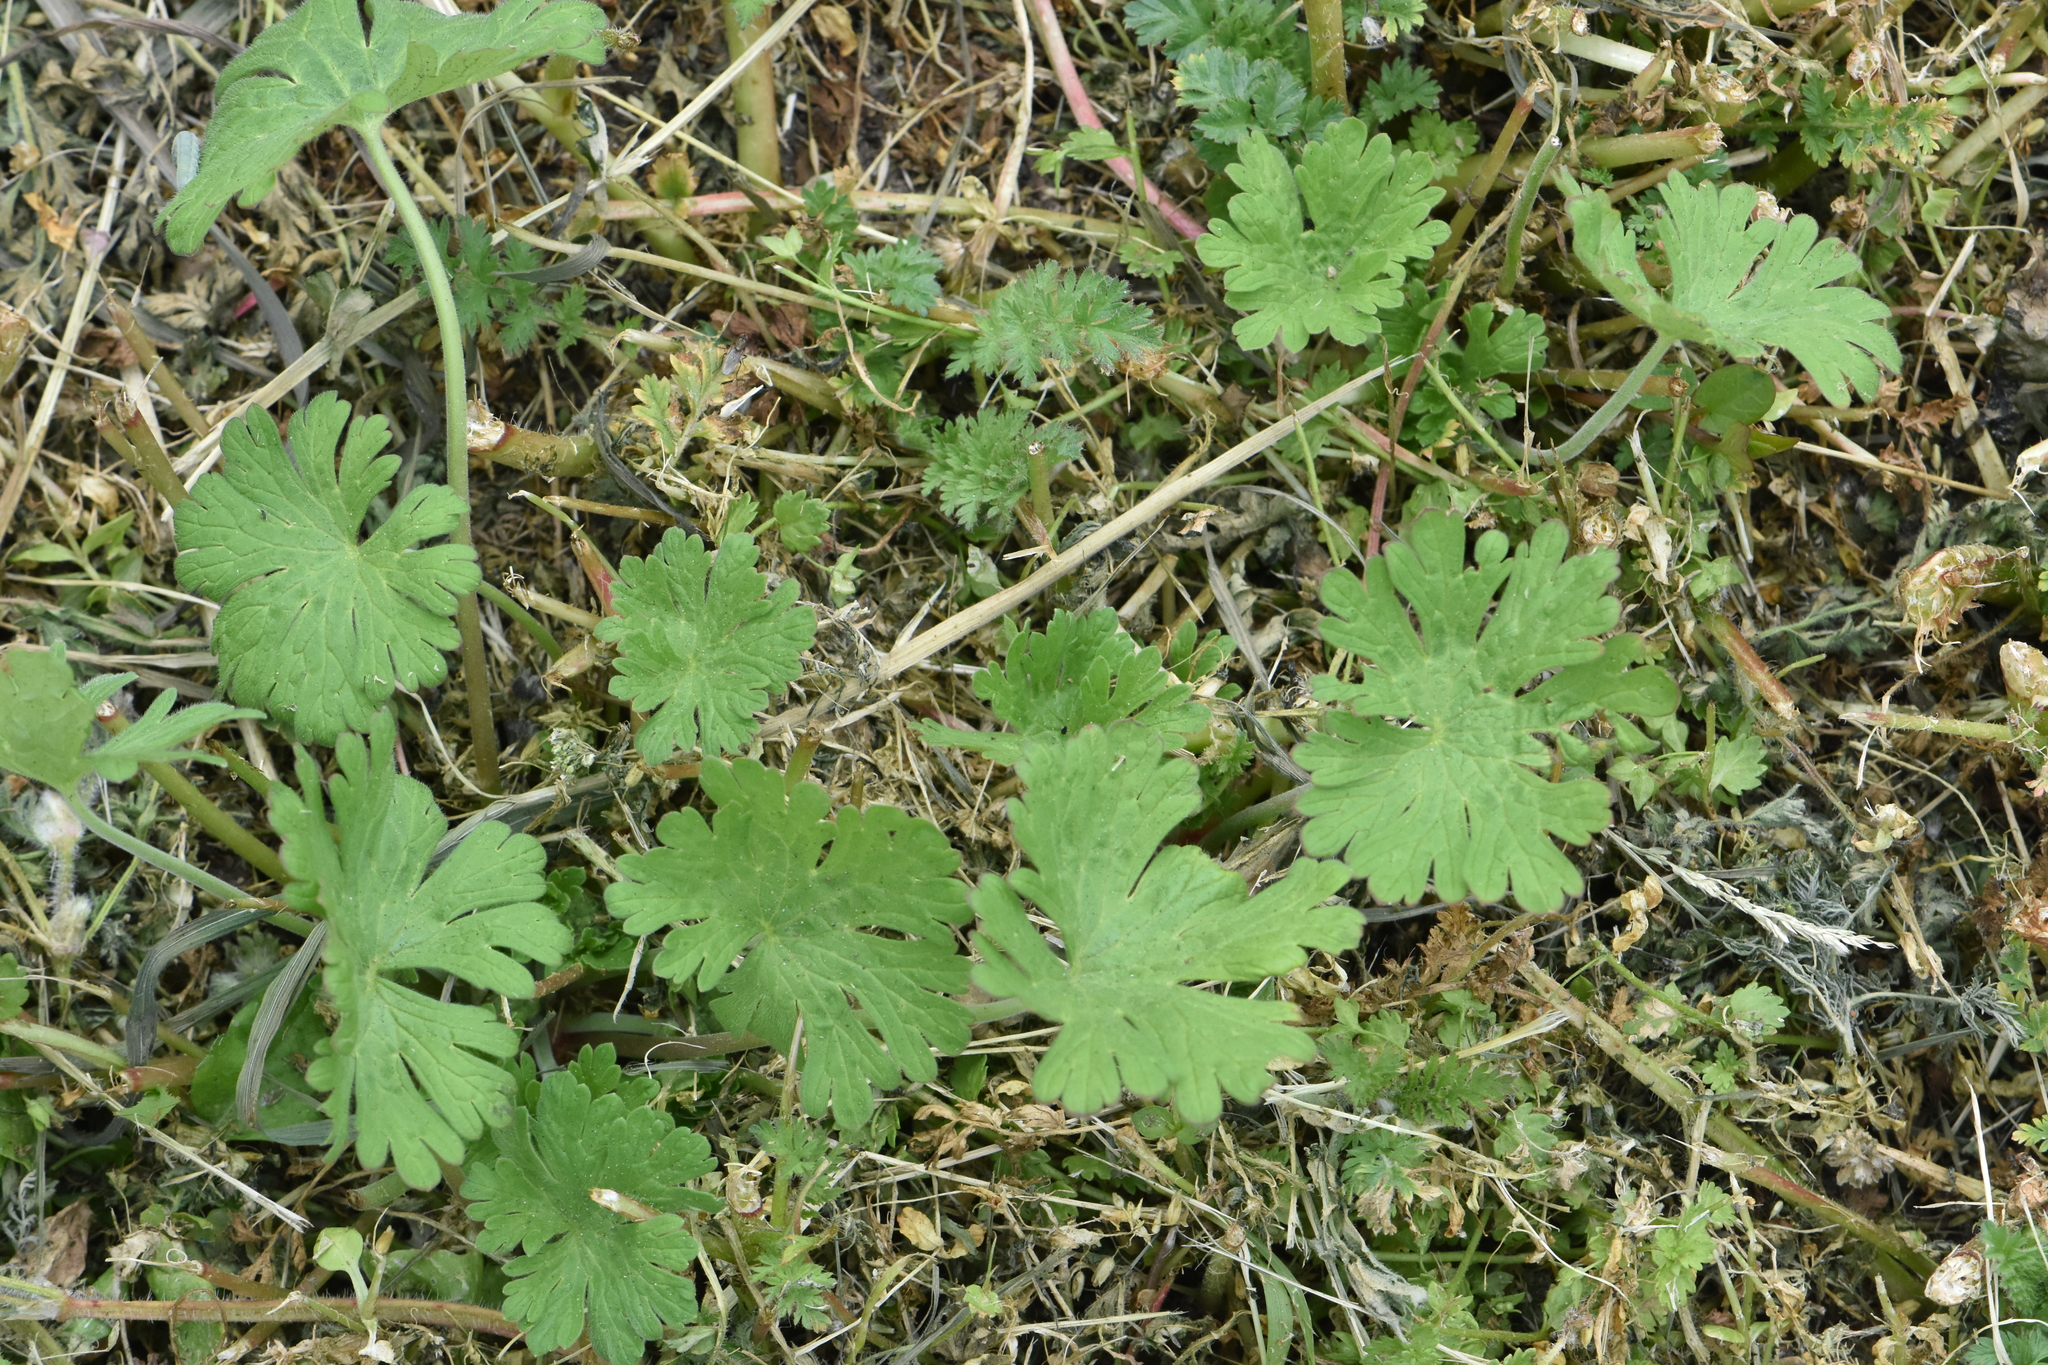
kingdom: Plantae
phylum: Tracheophyta
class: Magnoliopsida
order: Geraniales
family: Geraniaceae
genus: Geranium
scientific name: Geranium pusillum
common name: Small geranium
